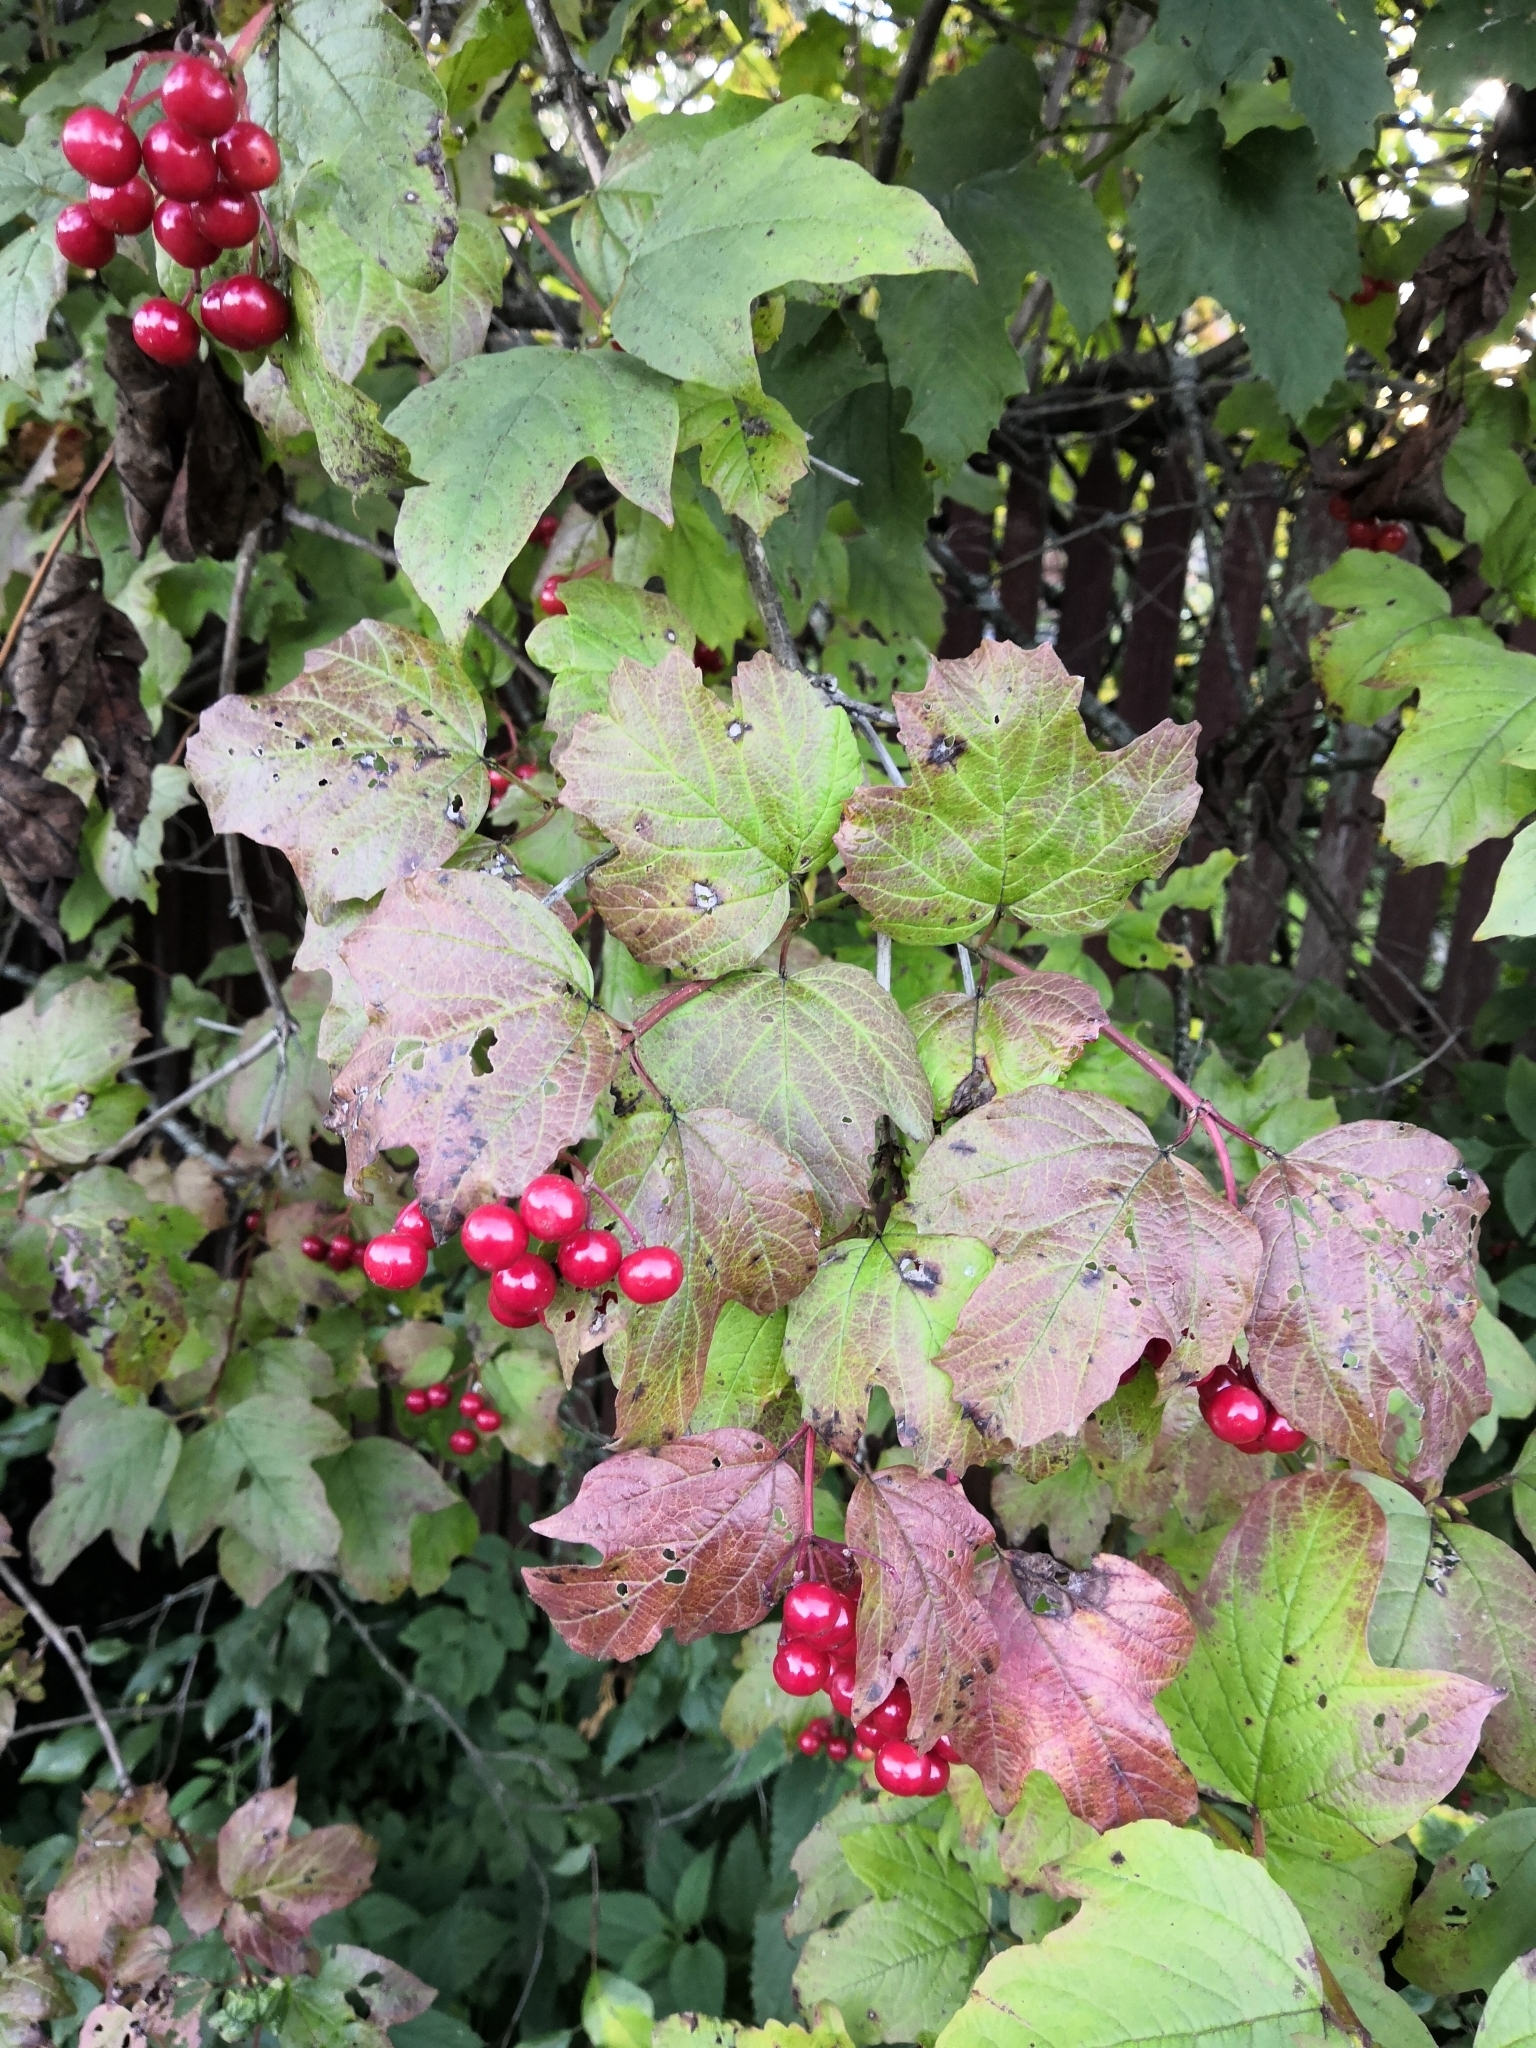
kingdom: Plantae
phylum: Tracheophyta
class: Magnoliopsida
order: Dipsacales
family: Viburnaceae
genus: Viburnum
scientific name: Viburnum opulus
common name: Guelder-rose
